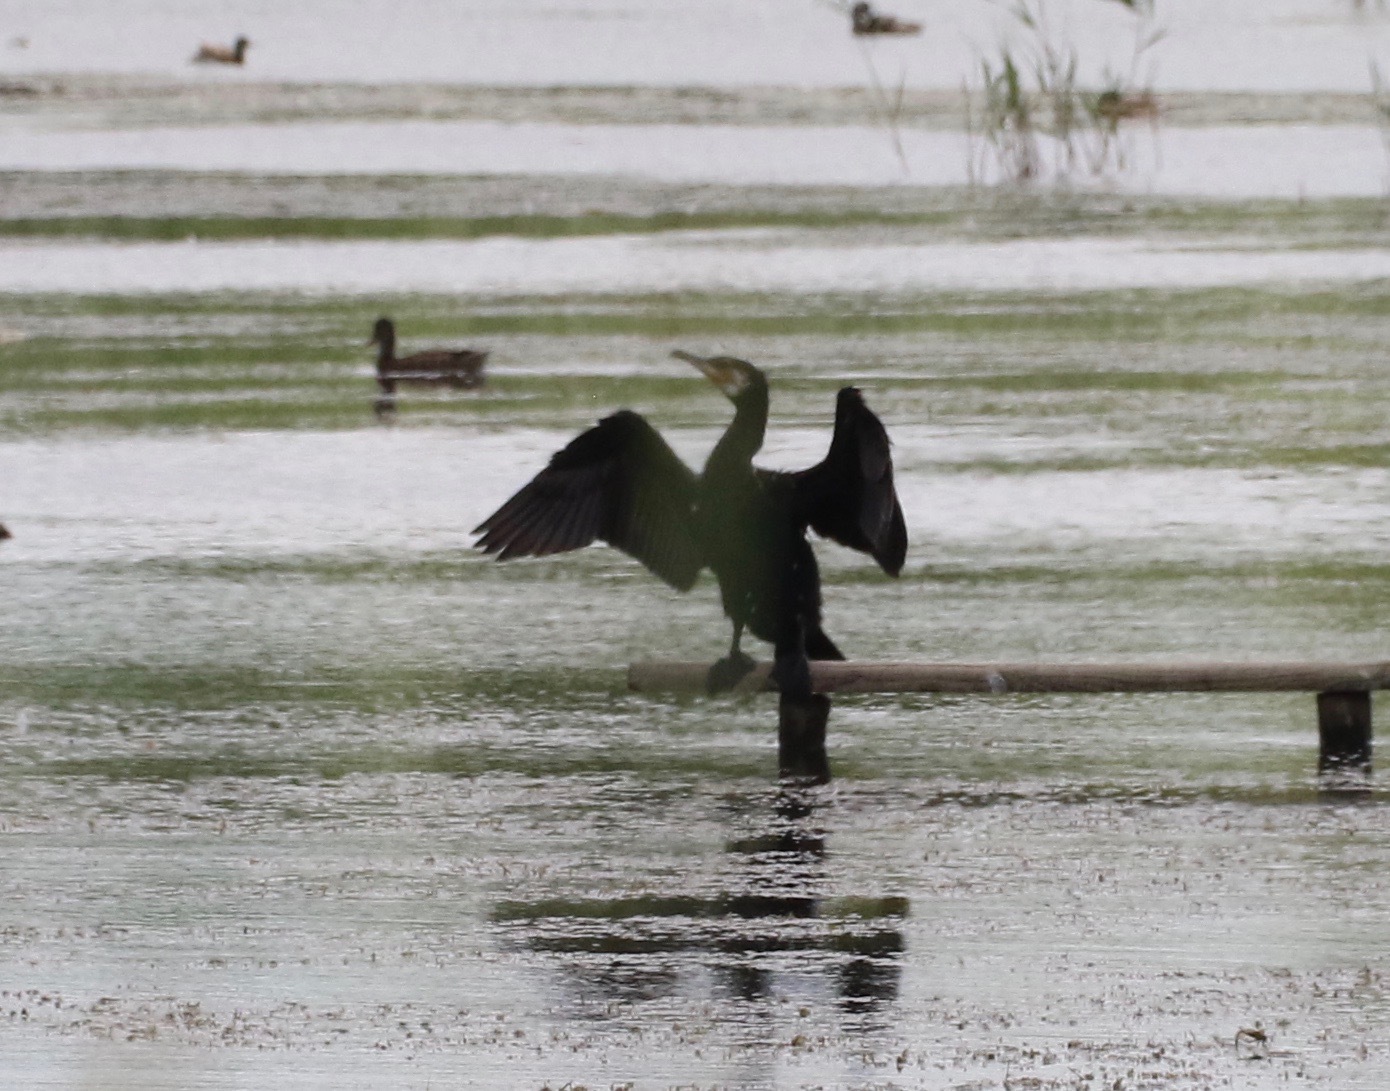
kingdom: Animalia
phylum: Chordata
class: Aves
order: Suliformes
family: Phalacrocoracidae
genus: Phalacrocorax
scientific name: Phalacrocorax carbo
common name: Great cormorant
